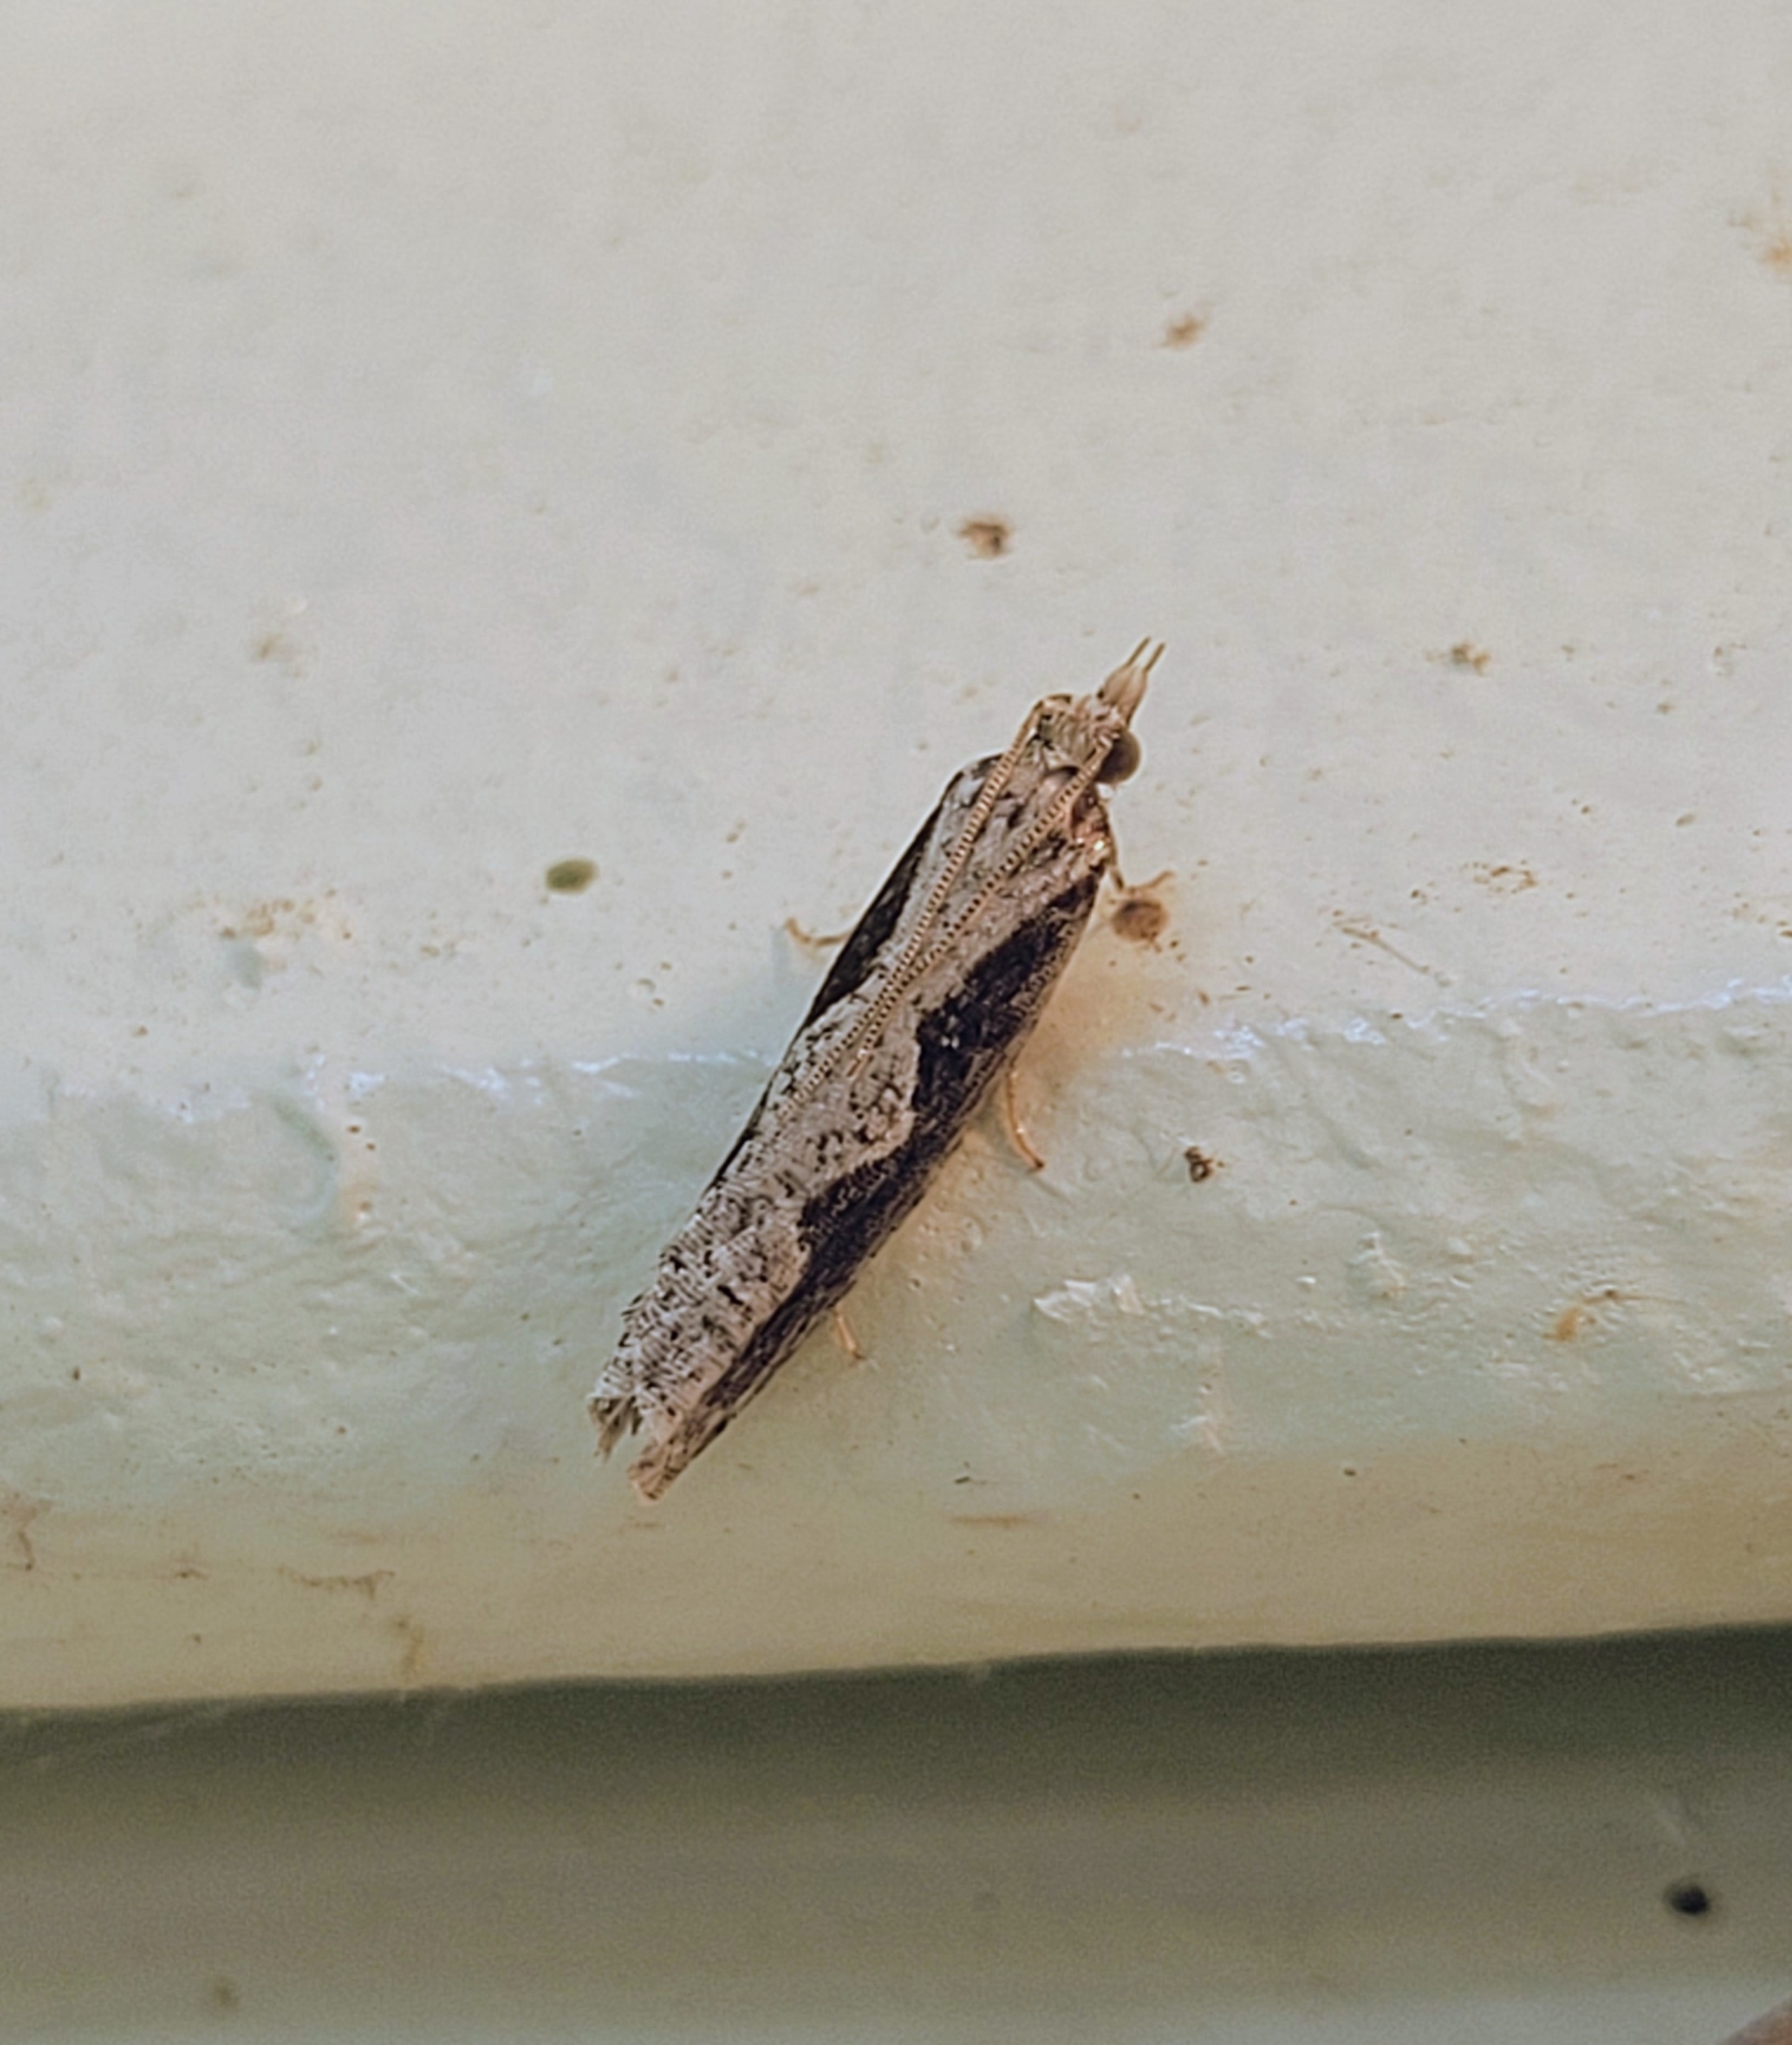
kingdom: Animalia
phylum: Arthropoda
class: Insecta
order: Lepidoptera
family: Tortricidae
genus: Epinotia
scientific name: Epinotia lindana
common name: Diamondback epinotia moth
